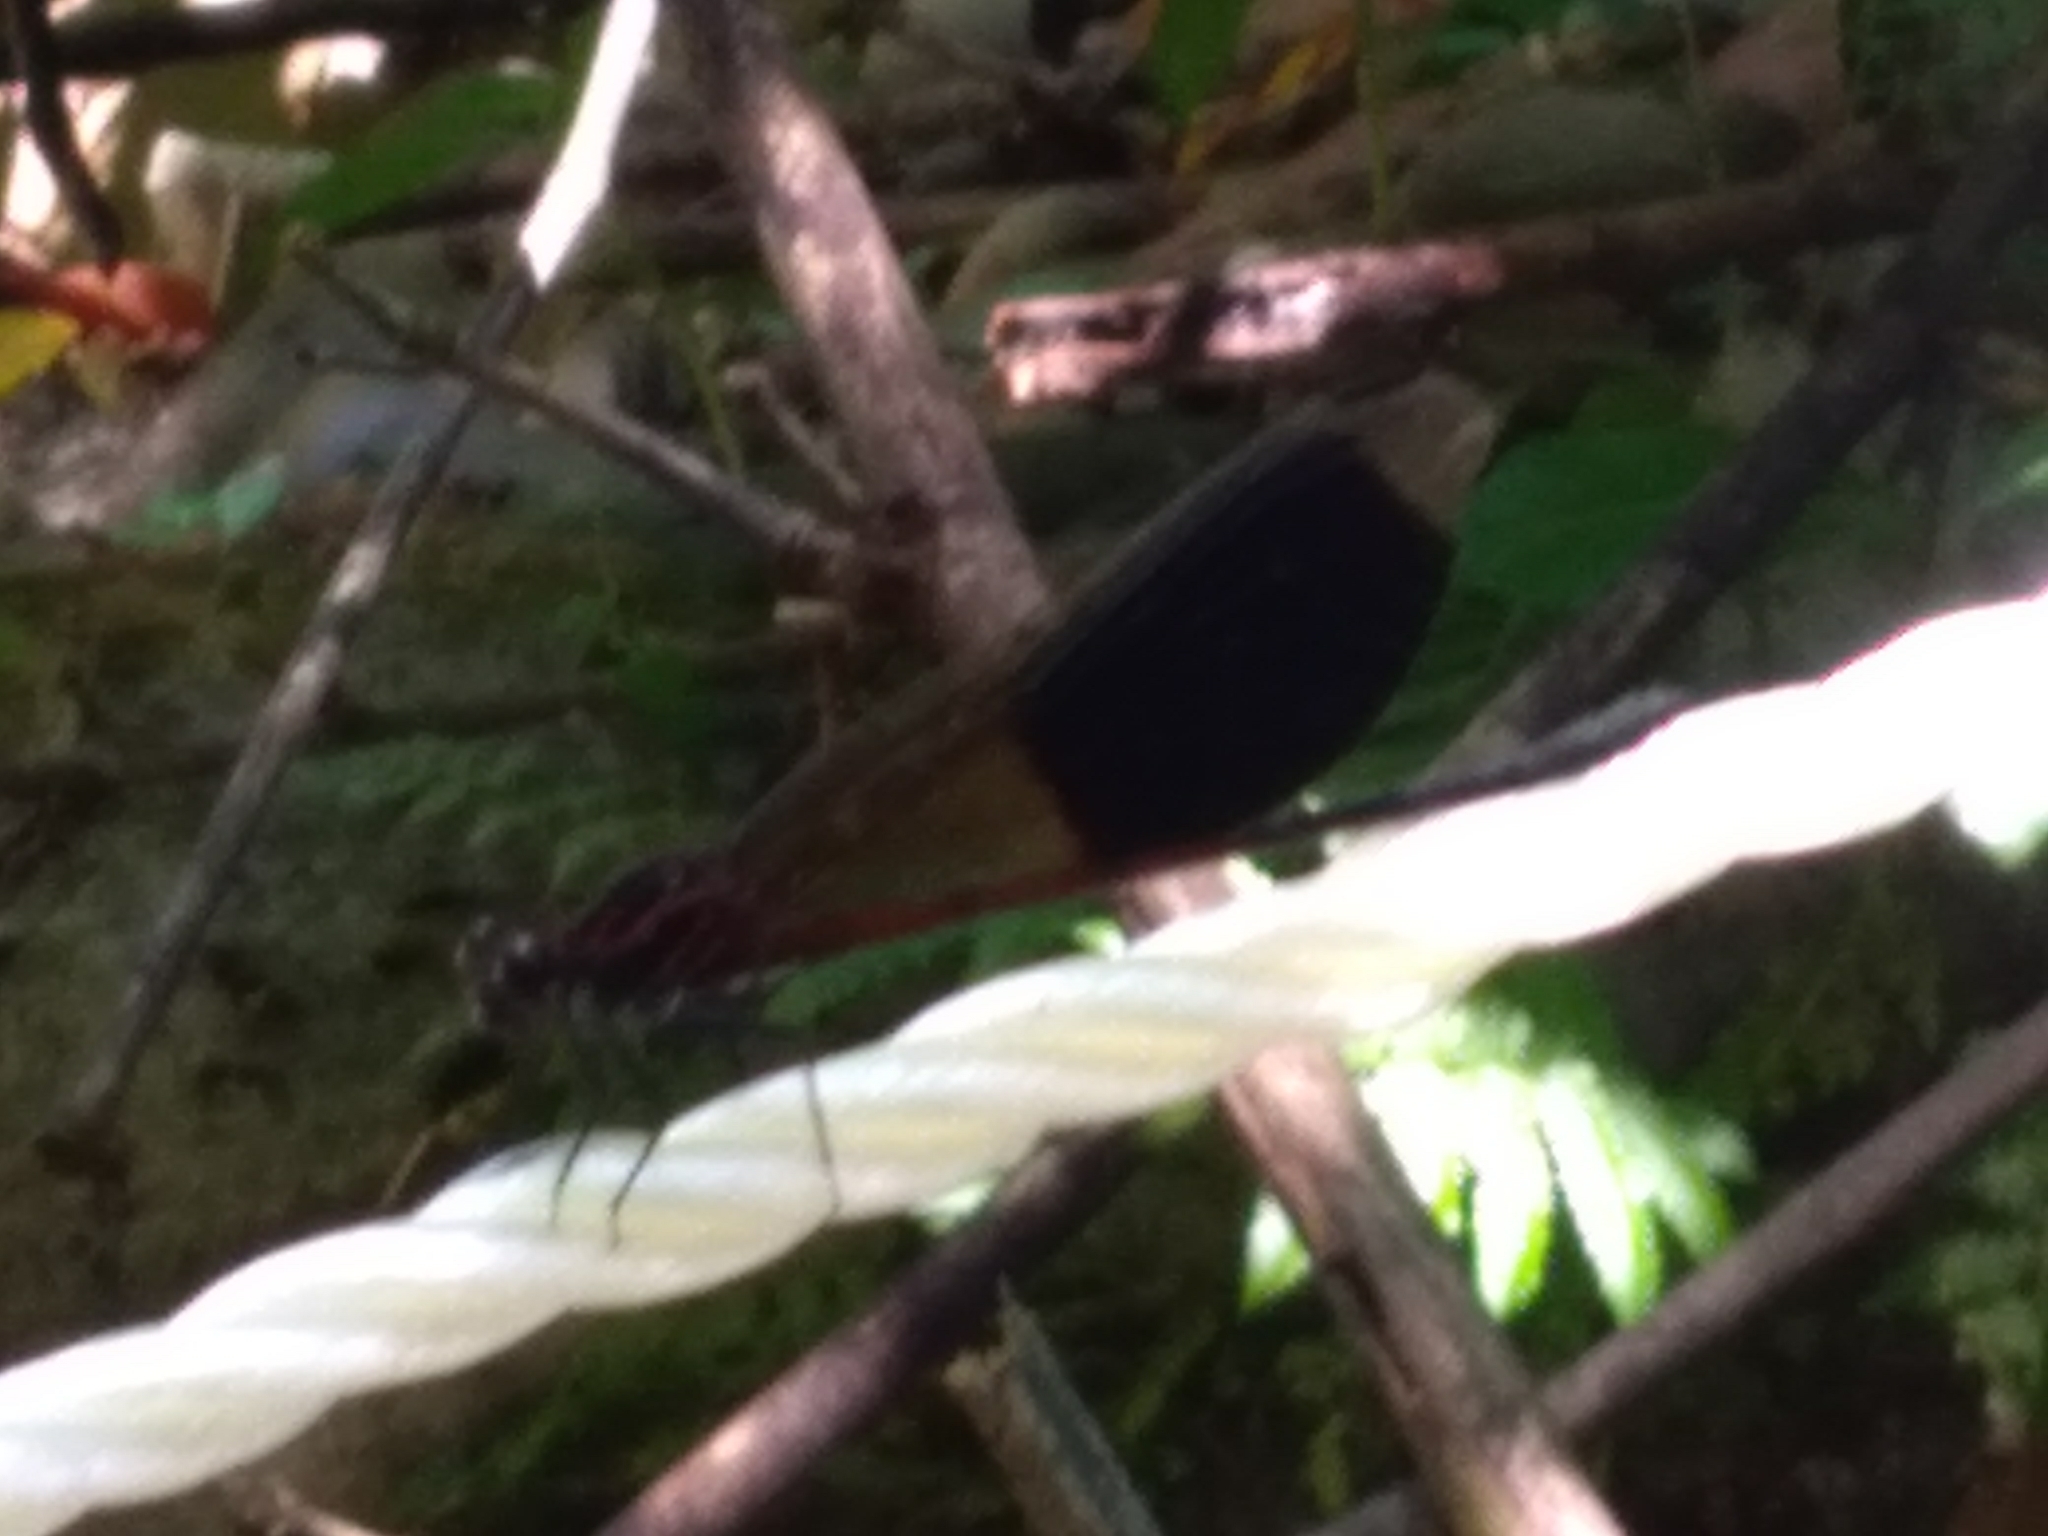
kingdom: Animalia
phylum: Arthropoda
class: Insecta
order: Odonata
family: Euphaeidae
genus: Euphaea
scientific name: Euphaea formosa
